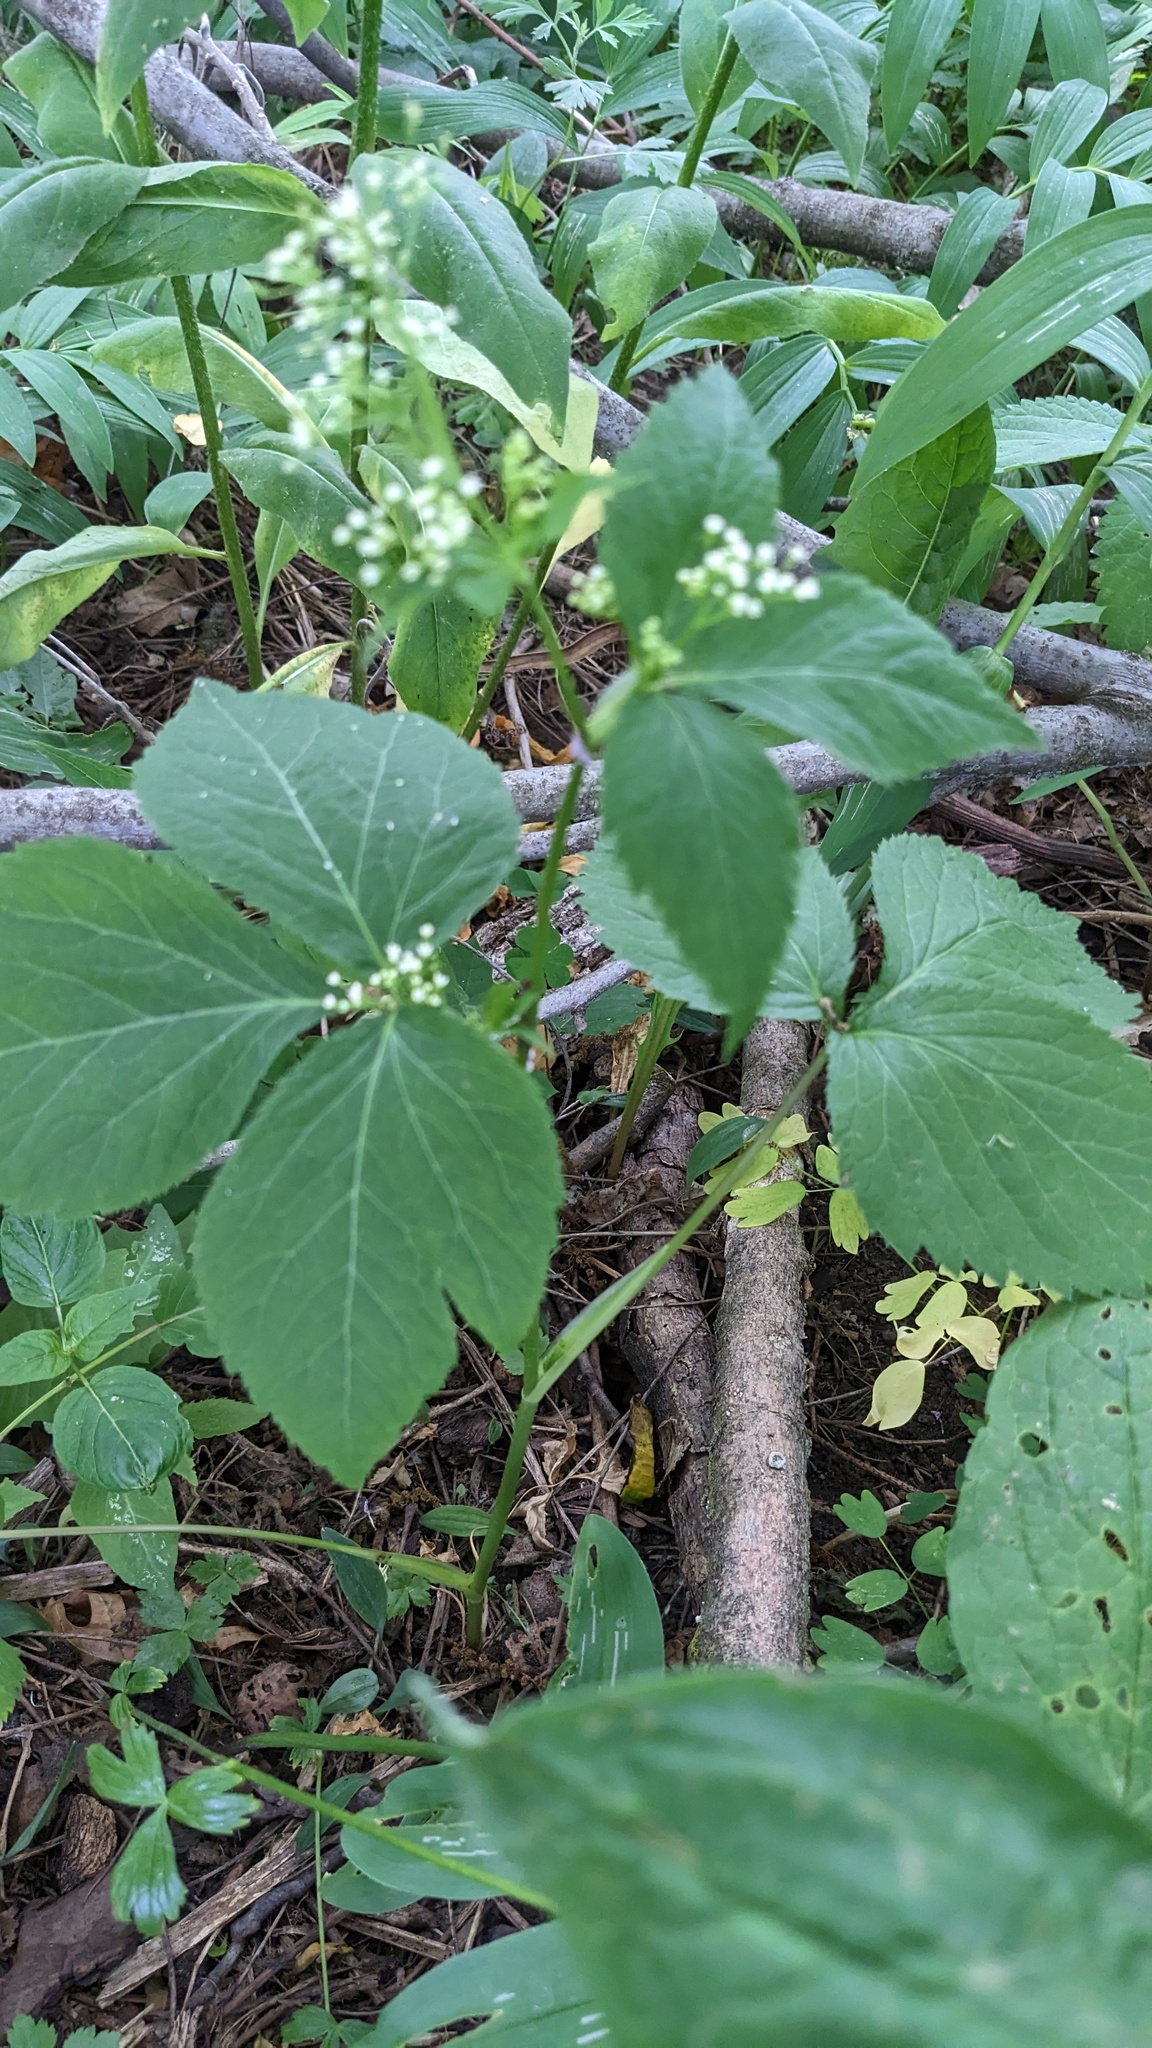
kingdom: Plantae
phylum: Tracheophyta
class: Magnoliopsida
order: Apiales
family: Apiaceae
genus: Cryptotaenia
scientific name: Cryptotaenia canadensis
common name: Honewort
